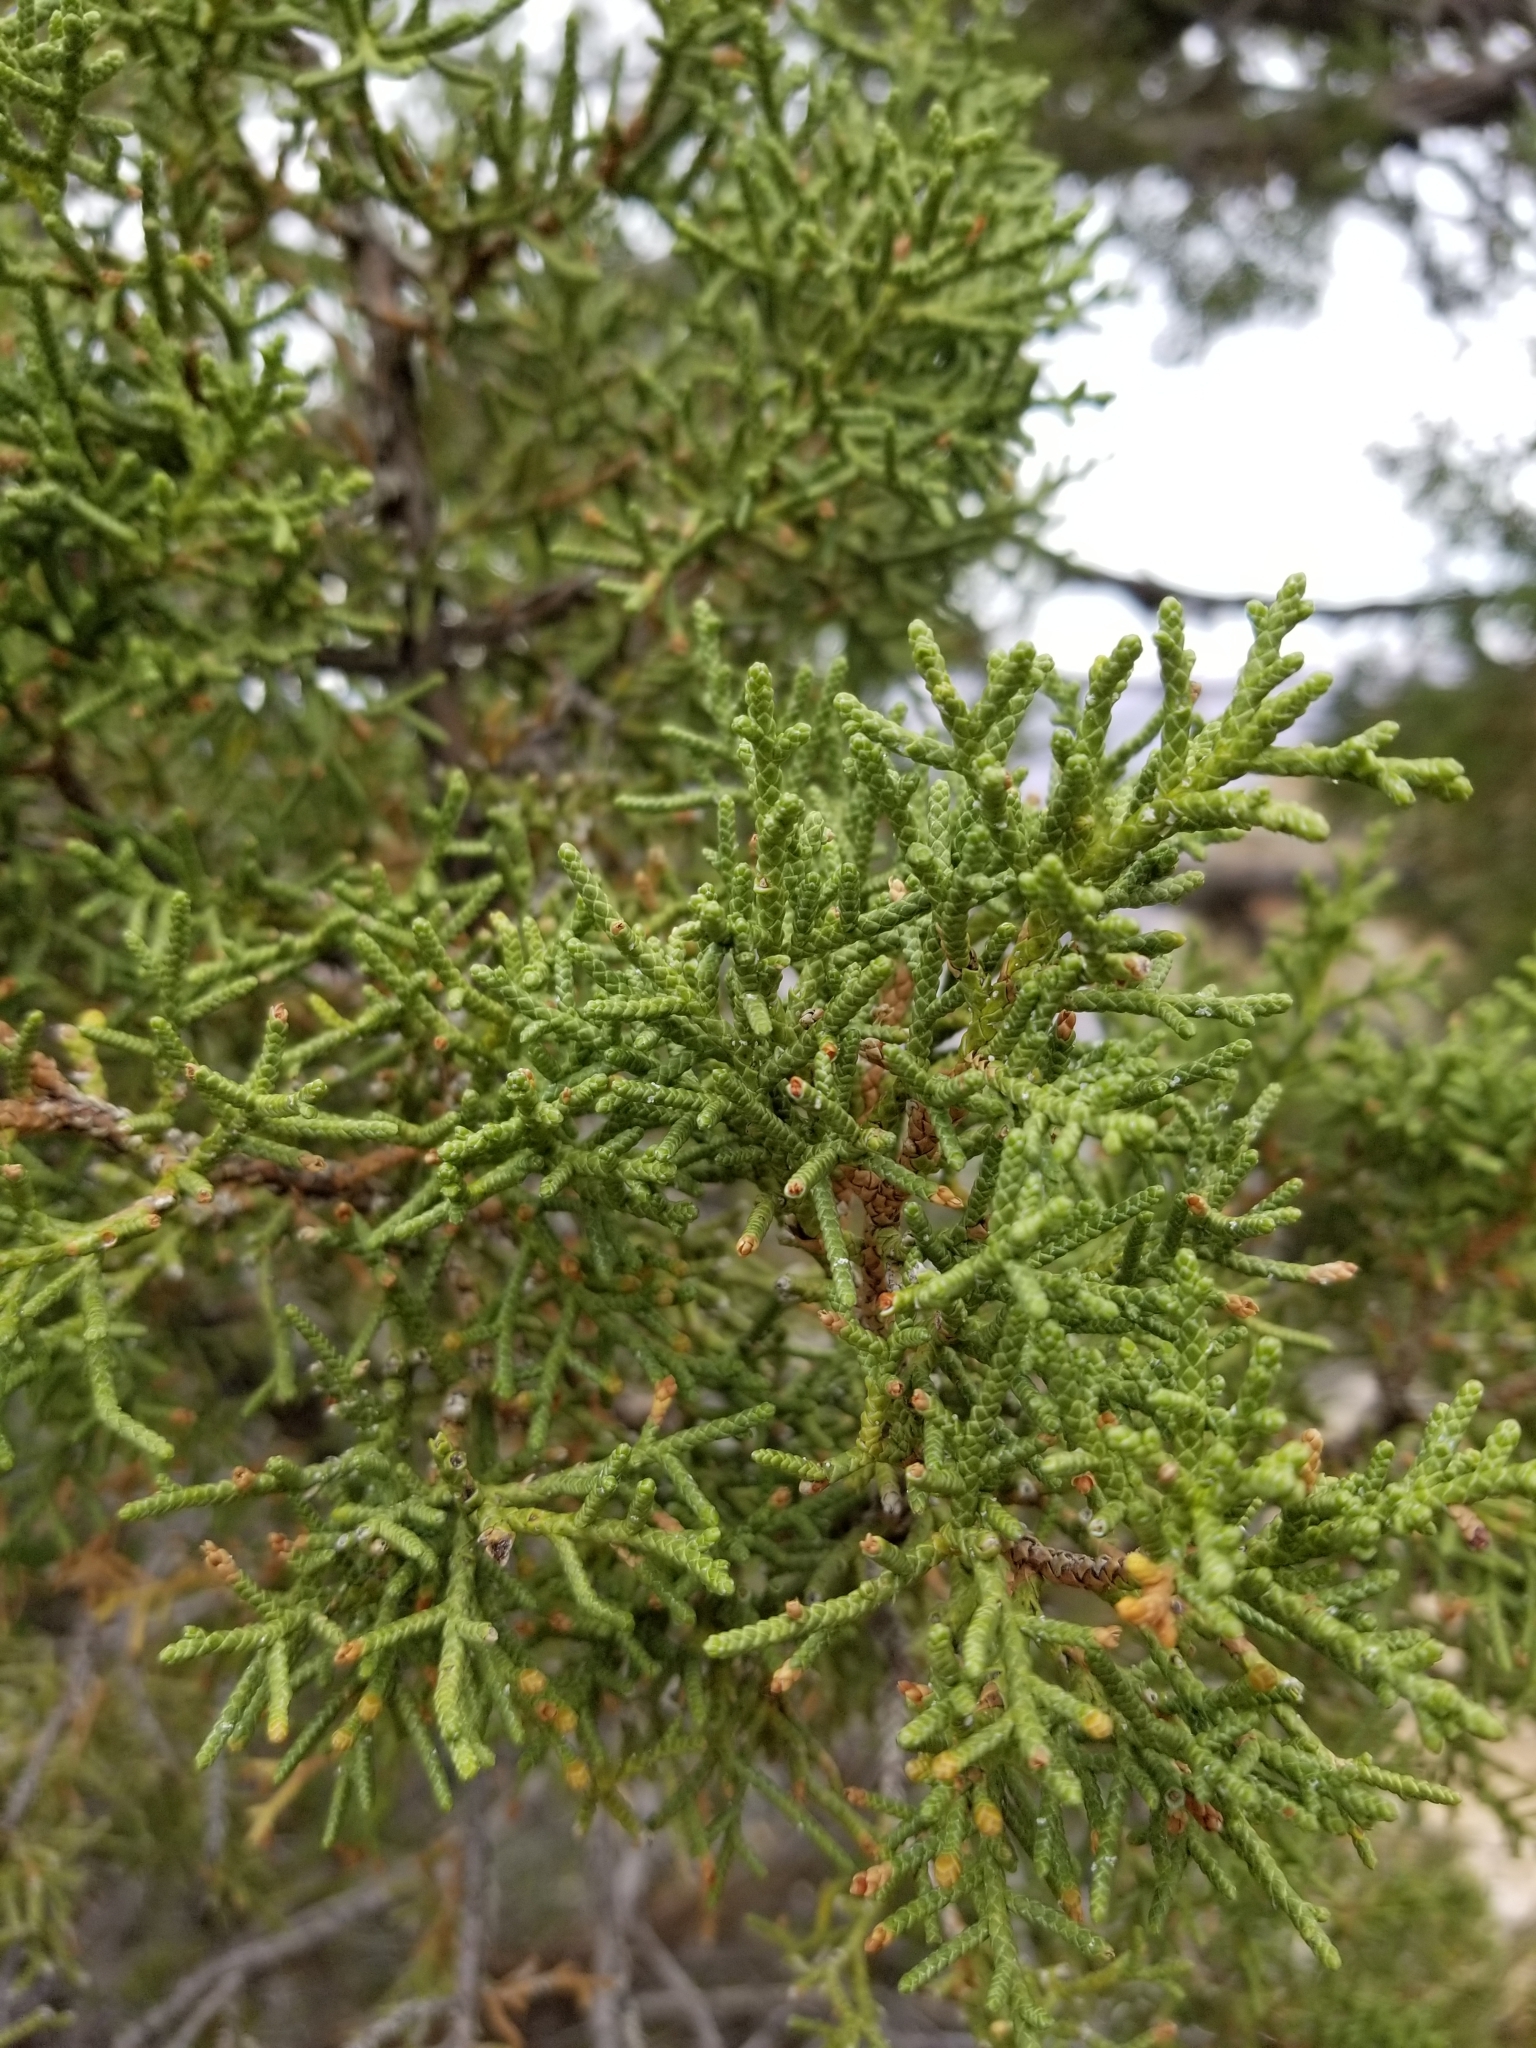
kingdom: Plantae
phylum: Tracheophyta
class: Pinopsida
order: Pinales
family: Cupressaceae
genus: Juniperus
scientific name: Juniperus osteosperma
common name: Utah juniper
